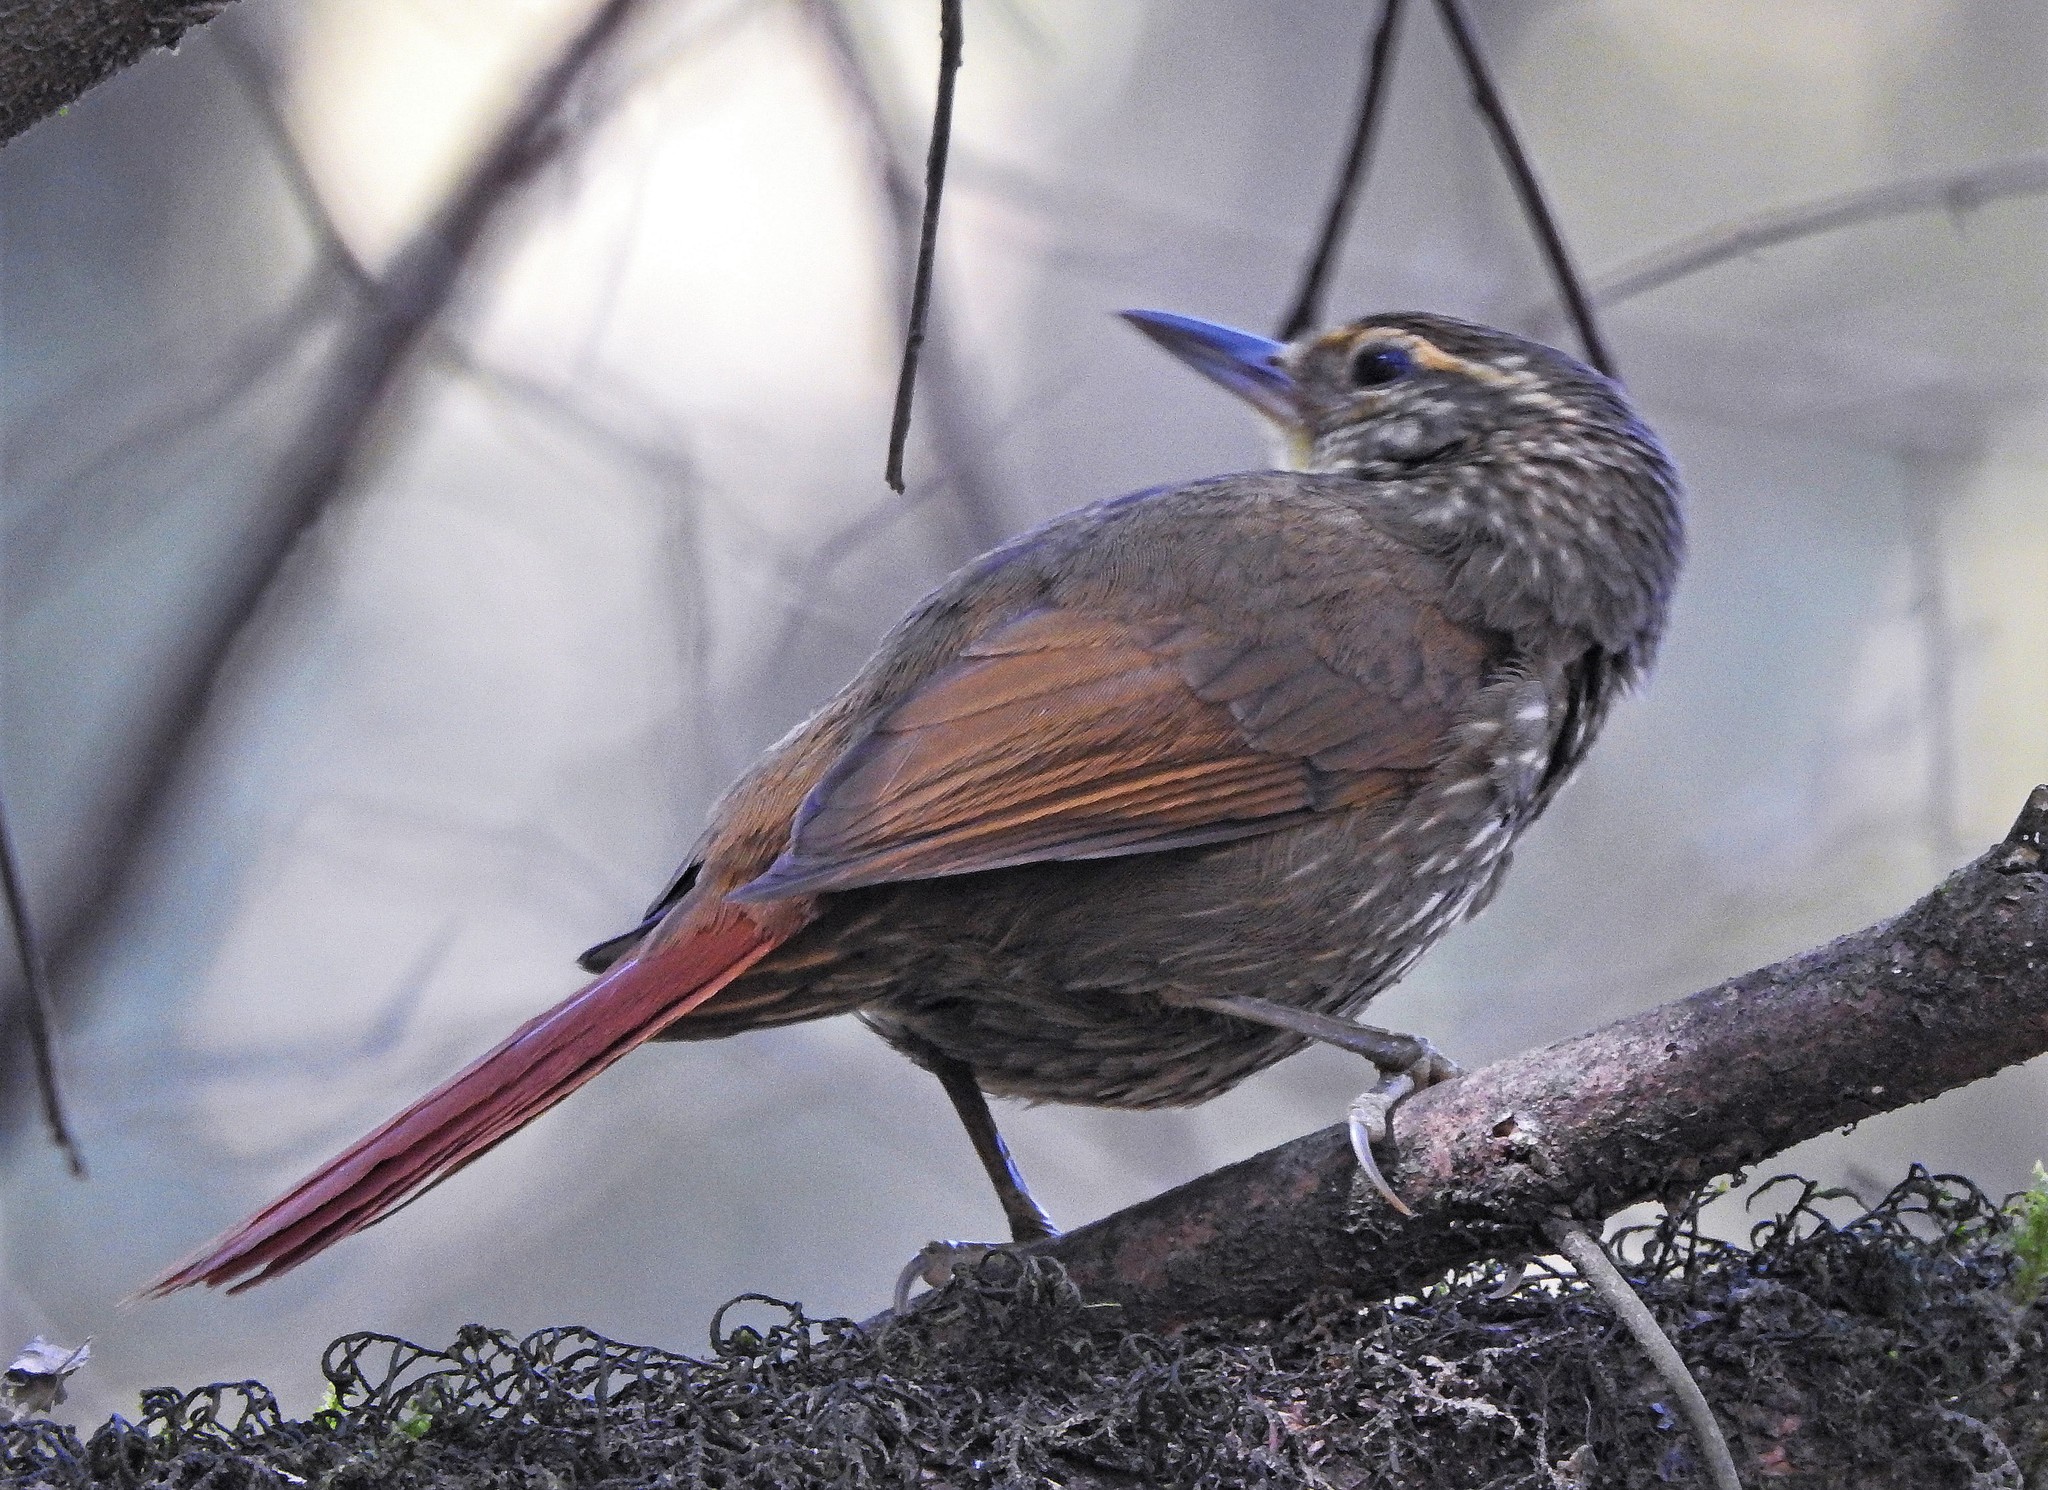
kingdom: Animalia
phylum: Chordata
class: Aves
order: Passeriformes
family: Furnariidae
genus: Syndactyla
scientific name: Syndactyla rufosuperciliata
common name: Buff-browed foliage-gleaner
